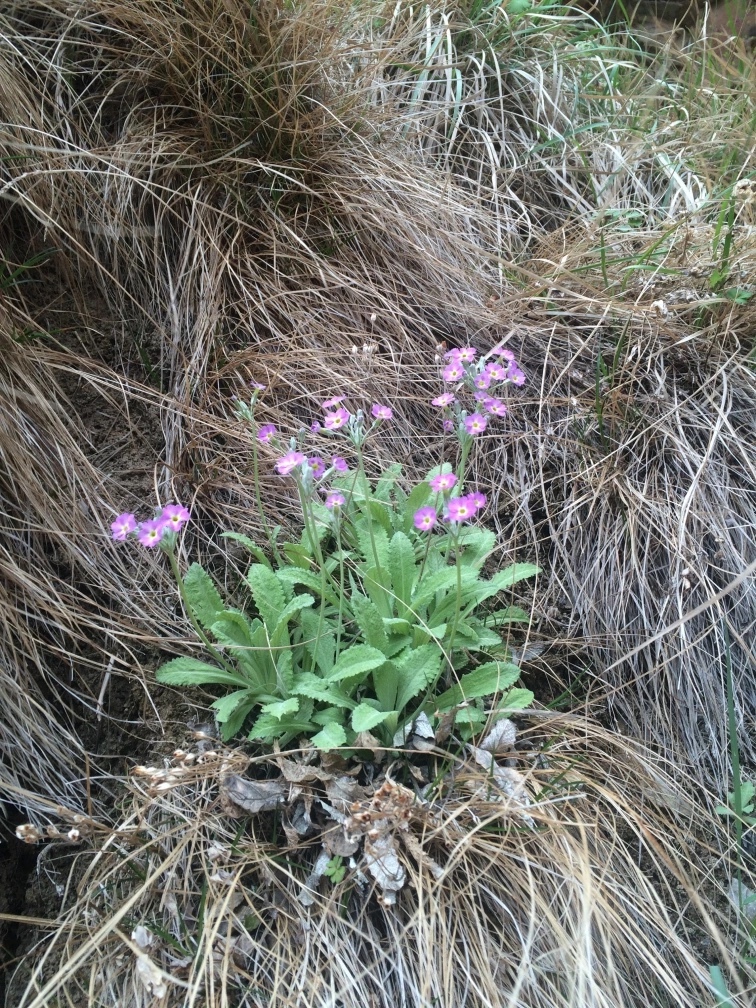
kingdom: Plantae
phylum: Tracheophyta
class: Magnoliopsida
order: Ericales
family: Primulaceae
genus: Primula
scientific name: Primula specuicola
